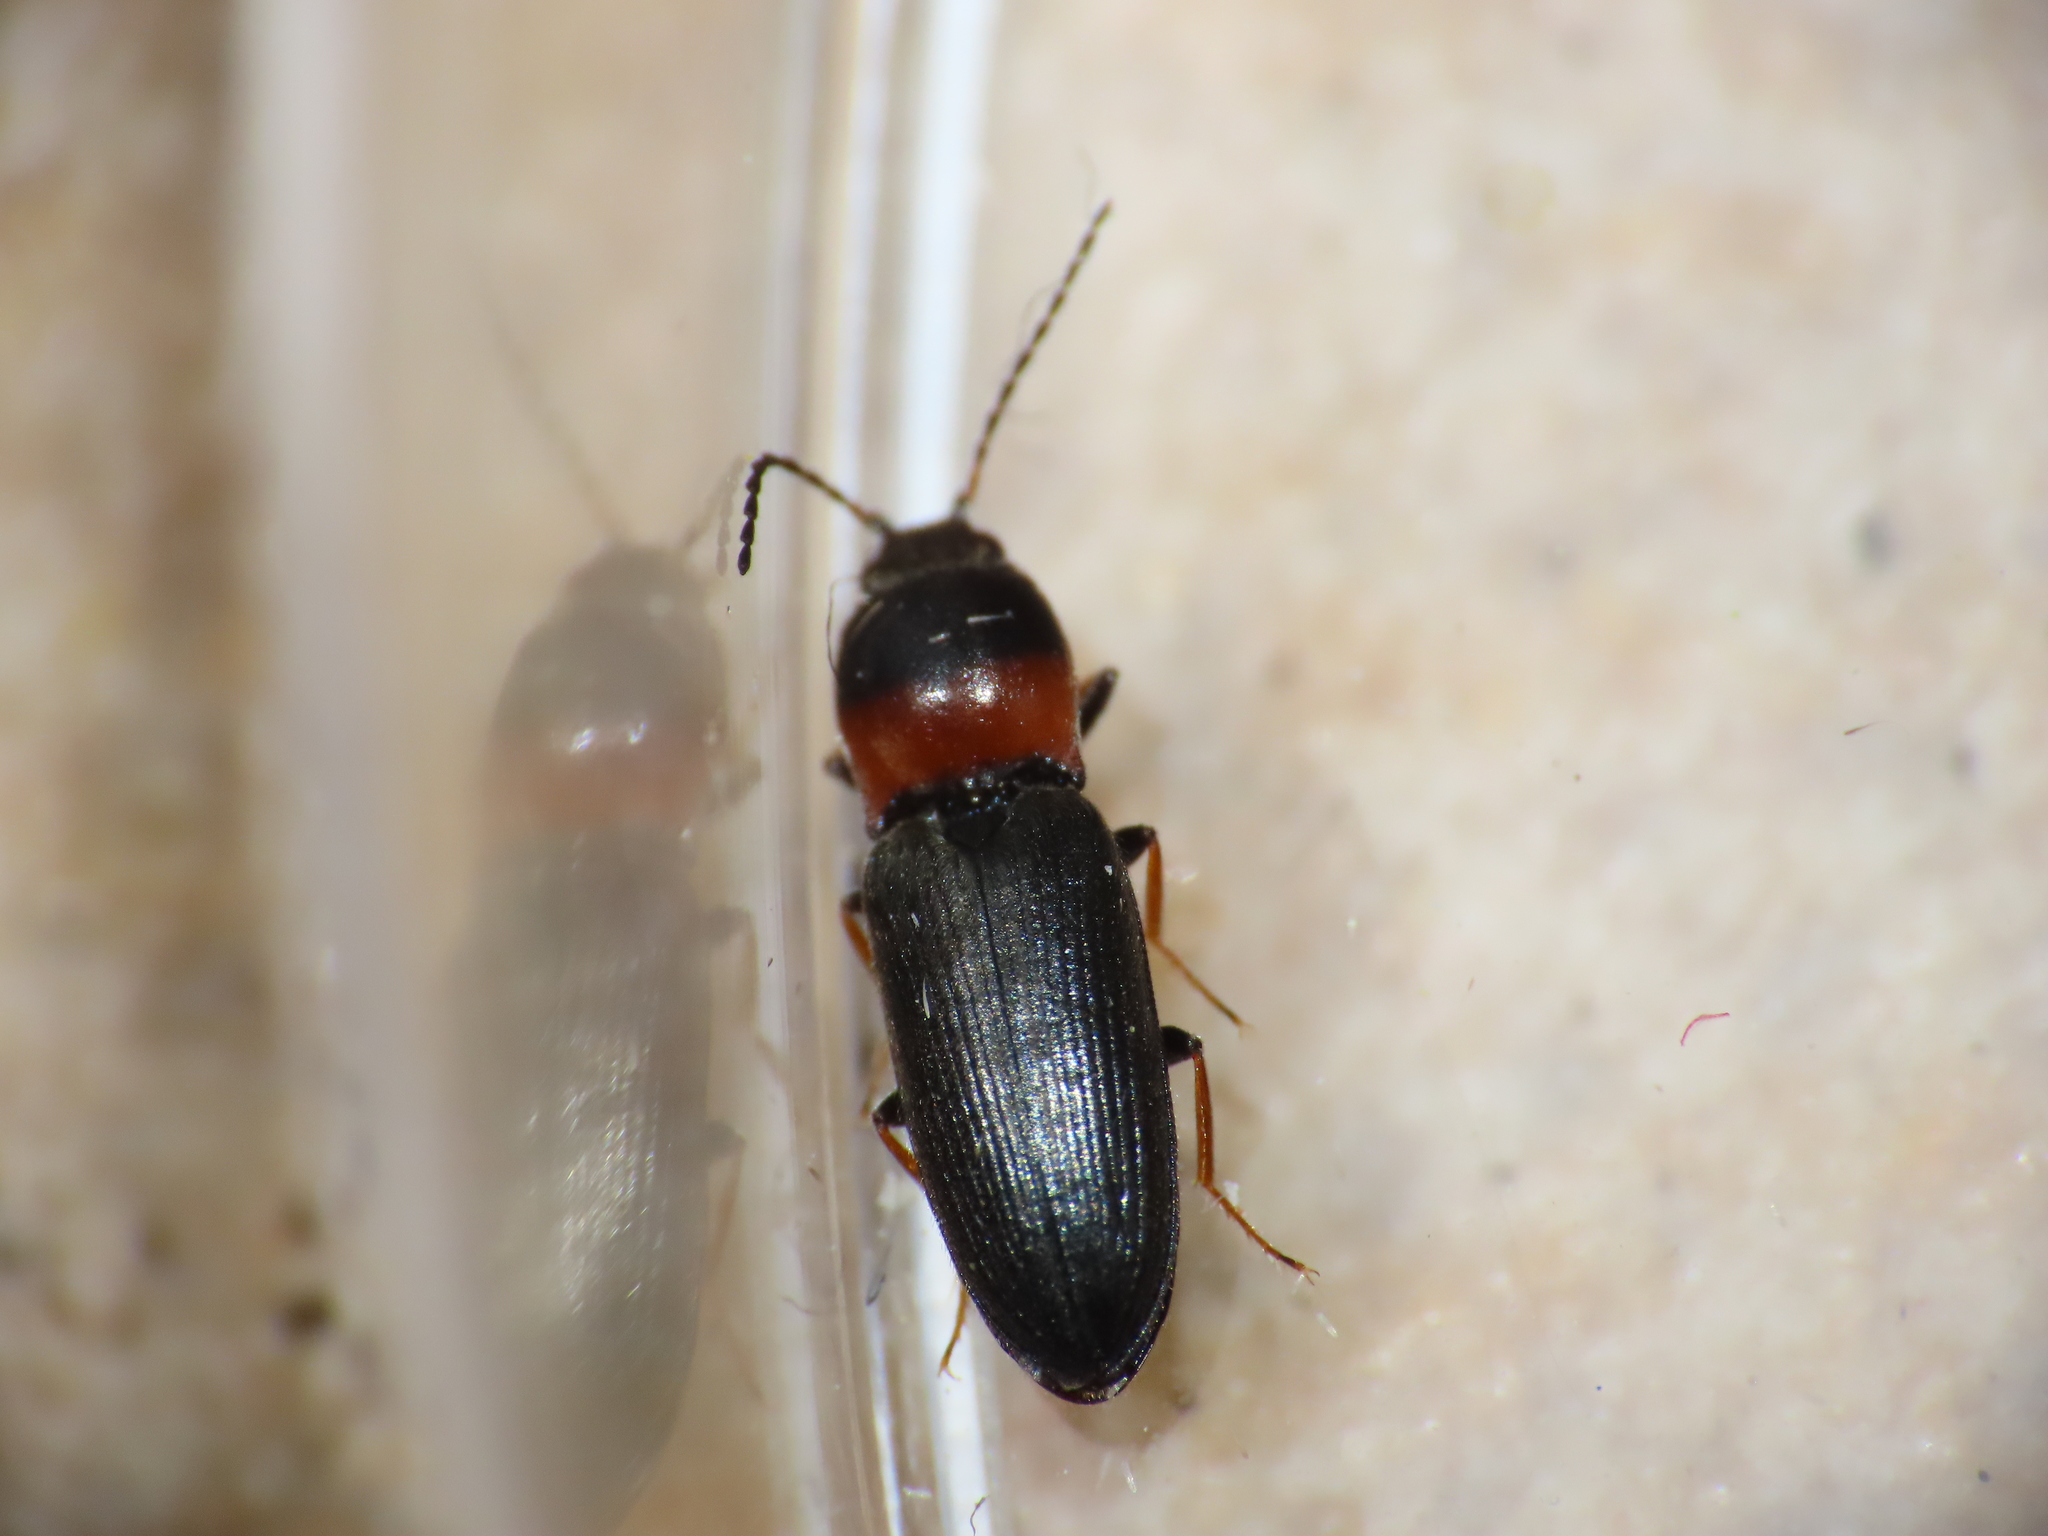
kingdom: Animalia
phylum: Arthropoda
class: Insecta
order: Coleoptera
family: Elateridae
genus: Cardiophorus
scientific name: Cardiophorus italicus
